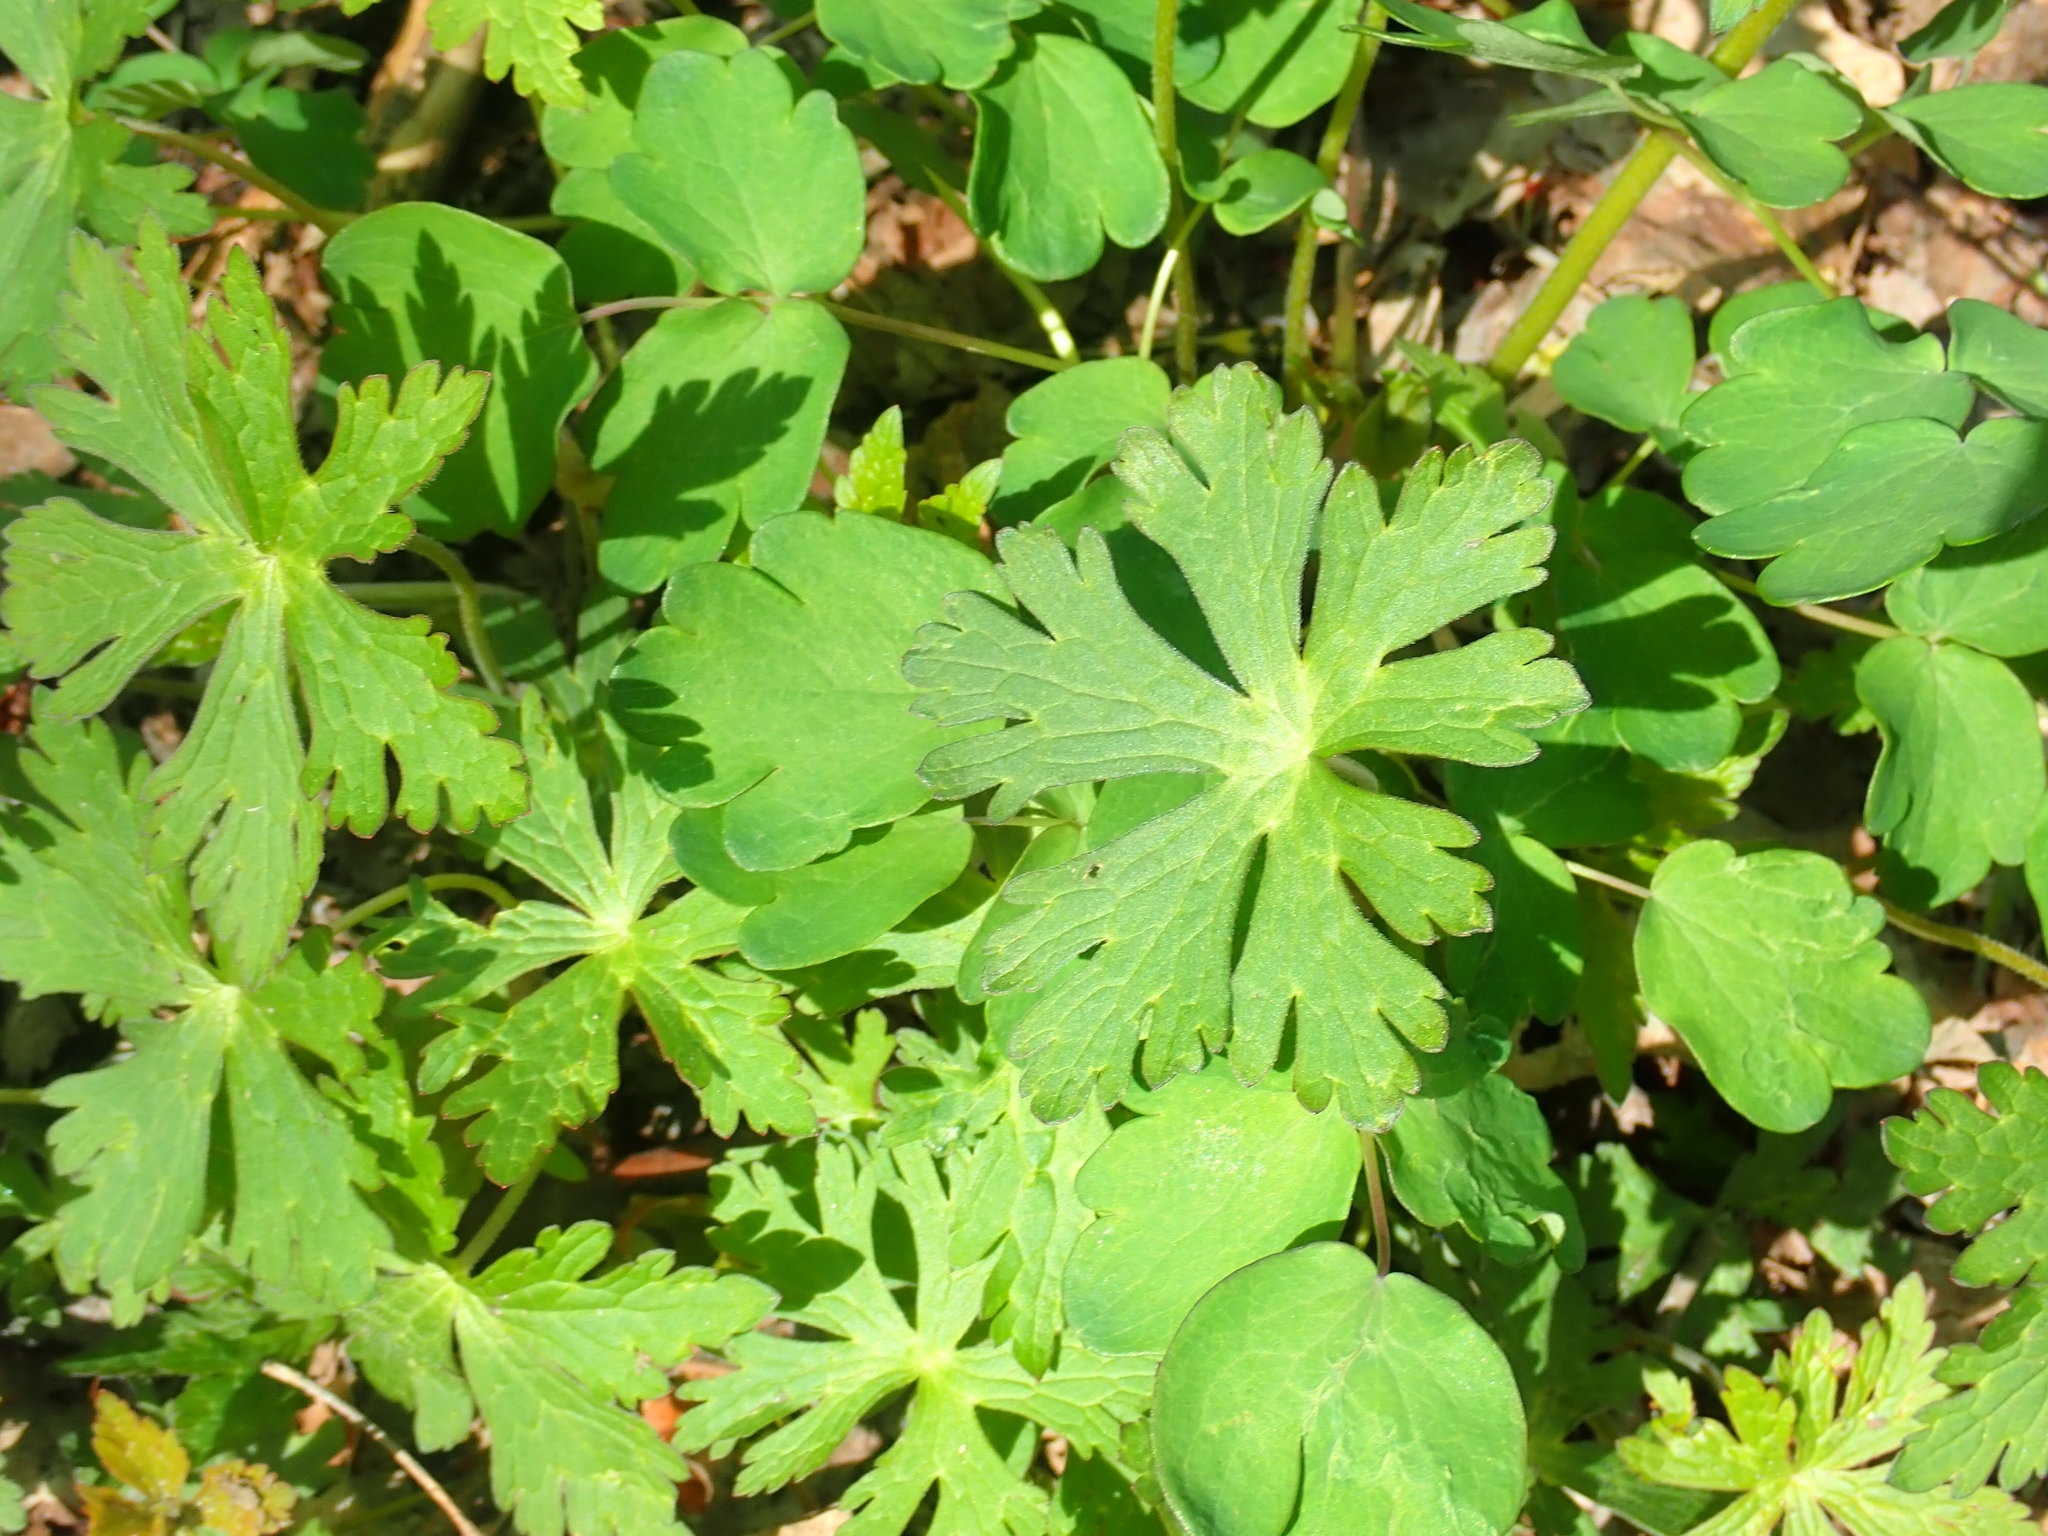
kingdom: Plantae
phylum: Tracheophyta
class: Magnoliopsida
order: Geraniales
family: Geraniaceae
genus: Geranium
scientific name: Geranium maculatum
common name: Spotted geranium
